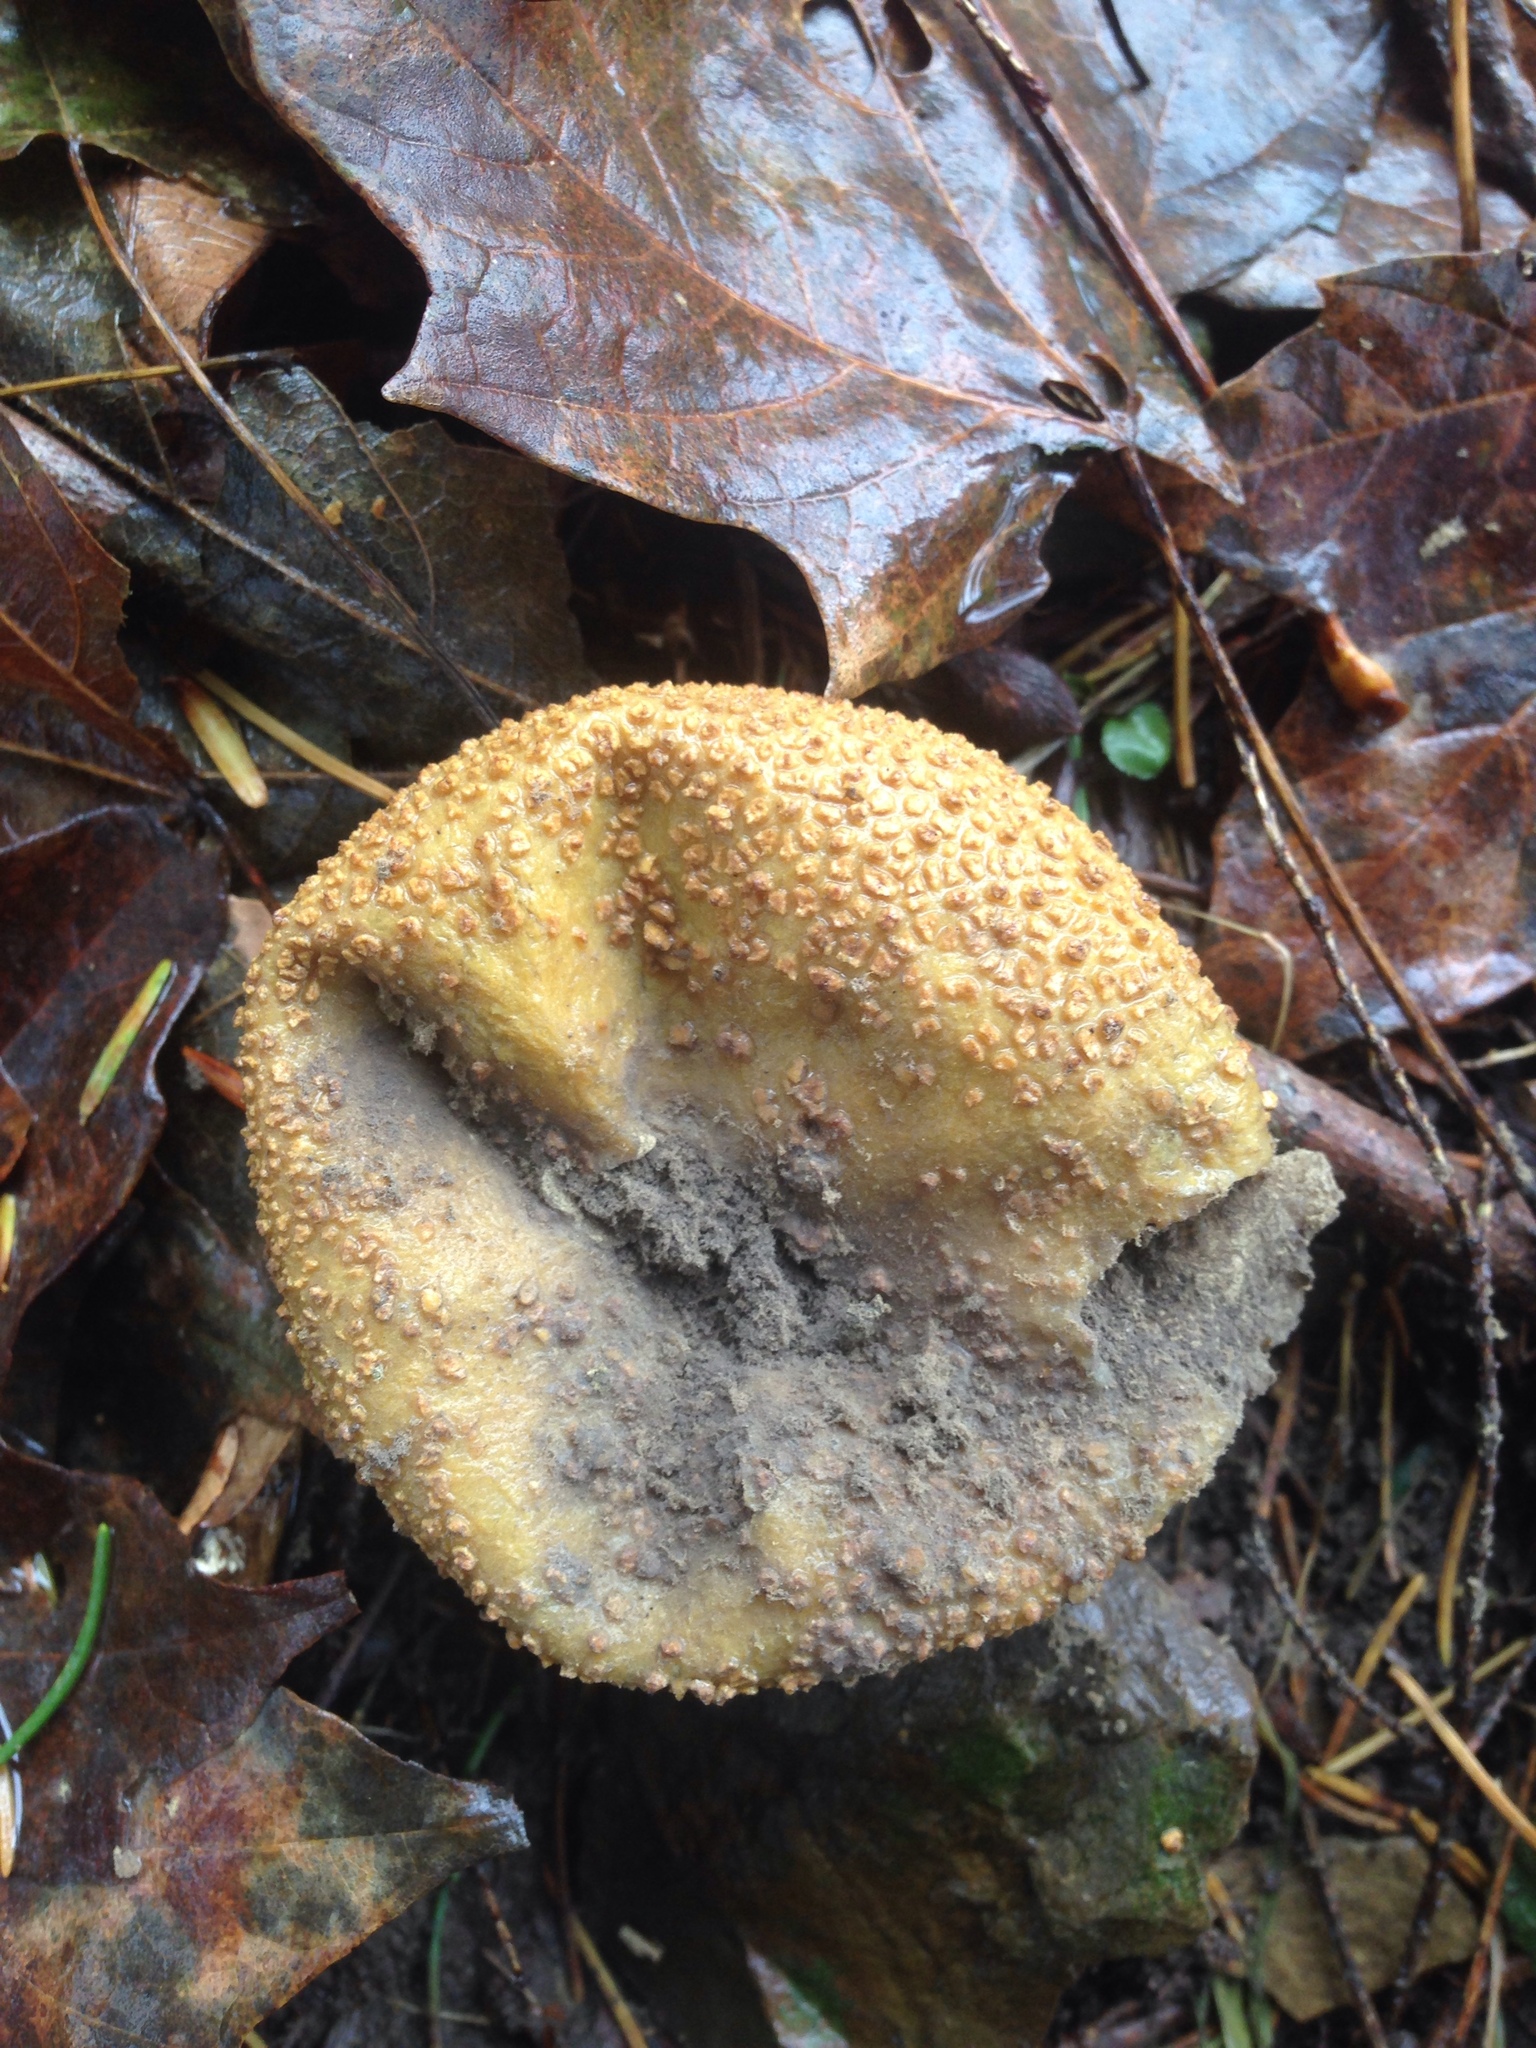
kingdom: Fungi
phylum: Basidiomycota
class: Agaricomycetes
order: Boletales
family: Sclerodermataceae
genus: Scleroderma
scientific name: Scleroderma citrinum
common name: Common earthball
